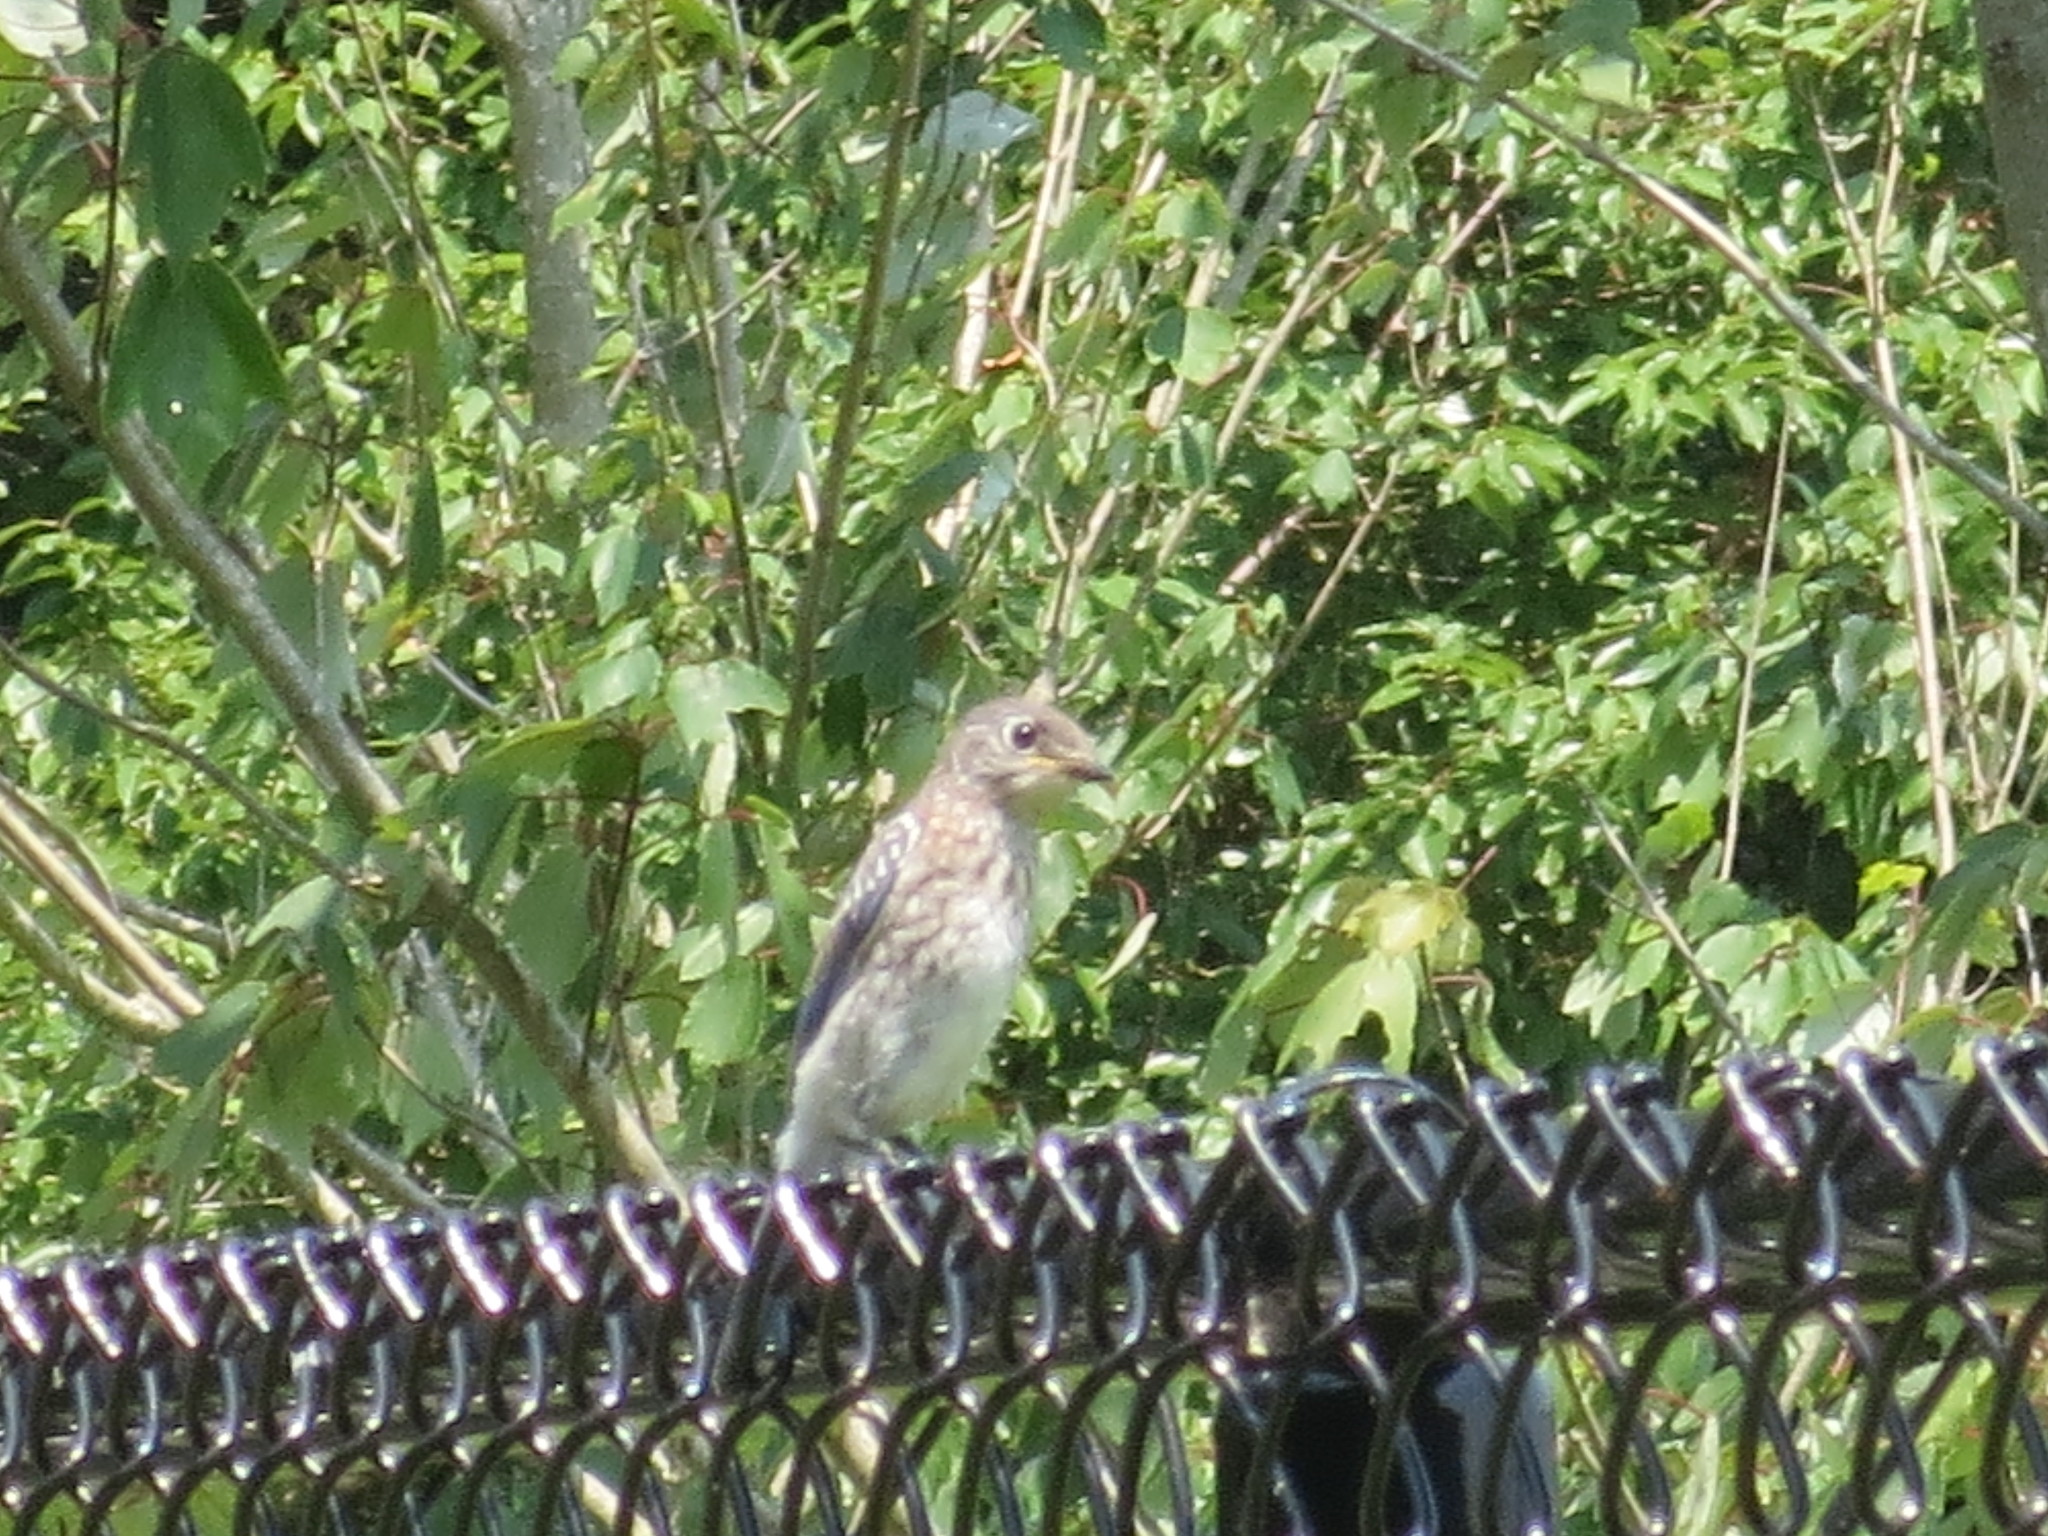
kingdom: Animalia
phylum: Chordata
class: Aves
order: Passeriformes
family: Turdidae
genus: Sialia
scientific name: Sialia sialis
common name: Eastern bluebird
